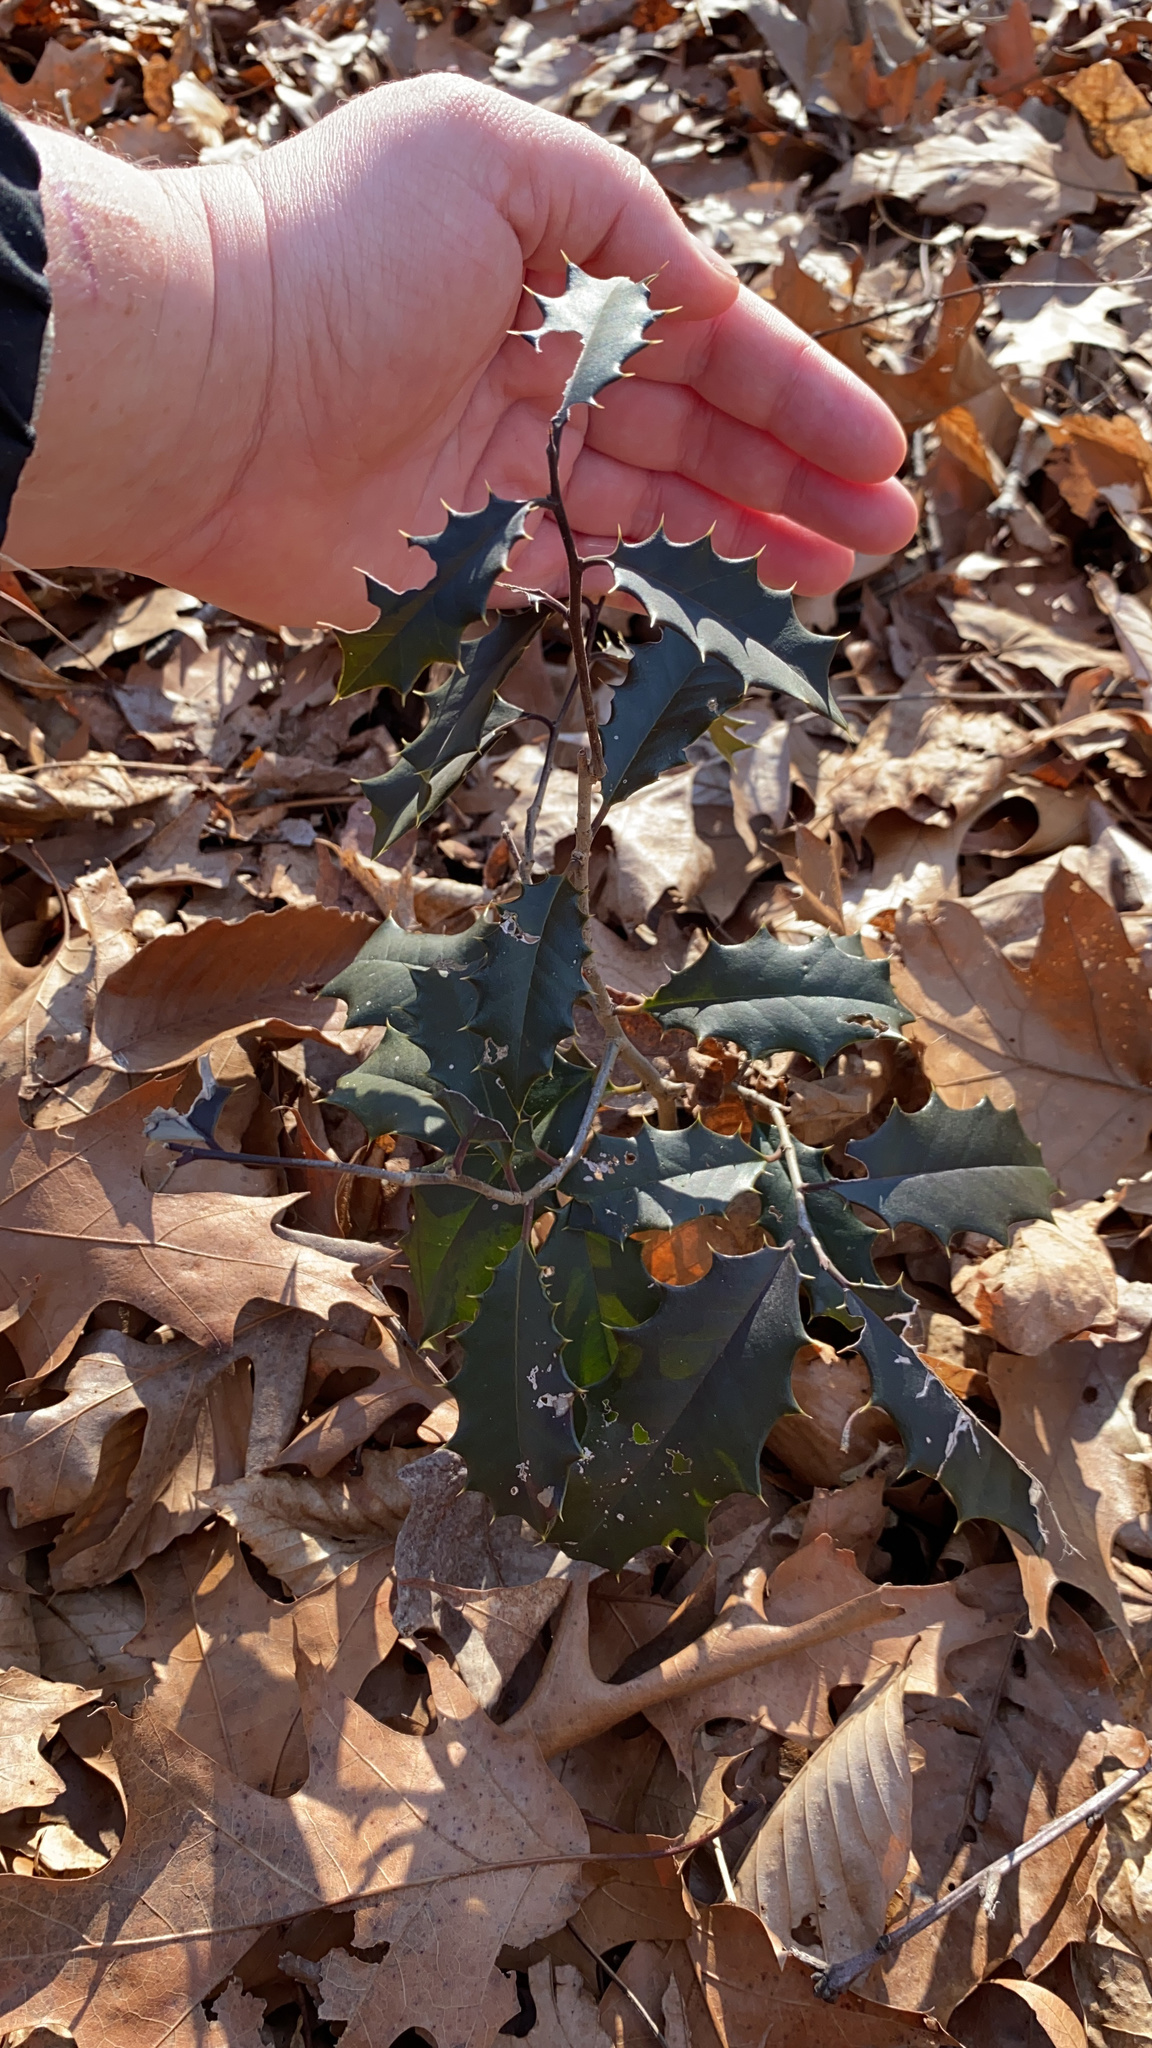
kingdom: Plantae
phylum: Tracheophyta
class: Magnoliopsida
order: Aquifoliales
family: Aquifoliaceae
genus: Ilex
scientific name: Ilex opaca
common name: American holly
